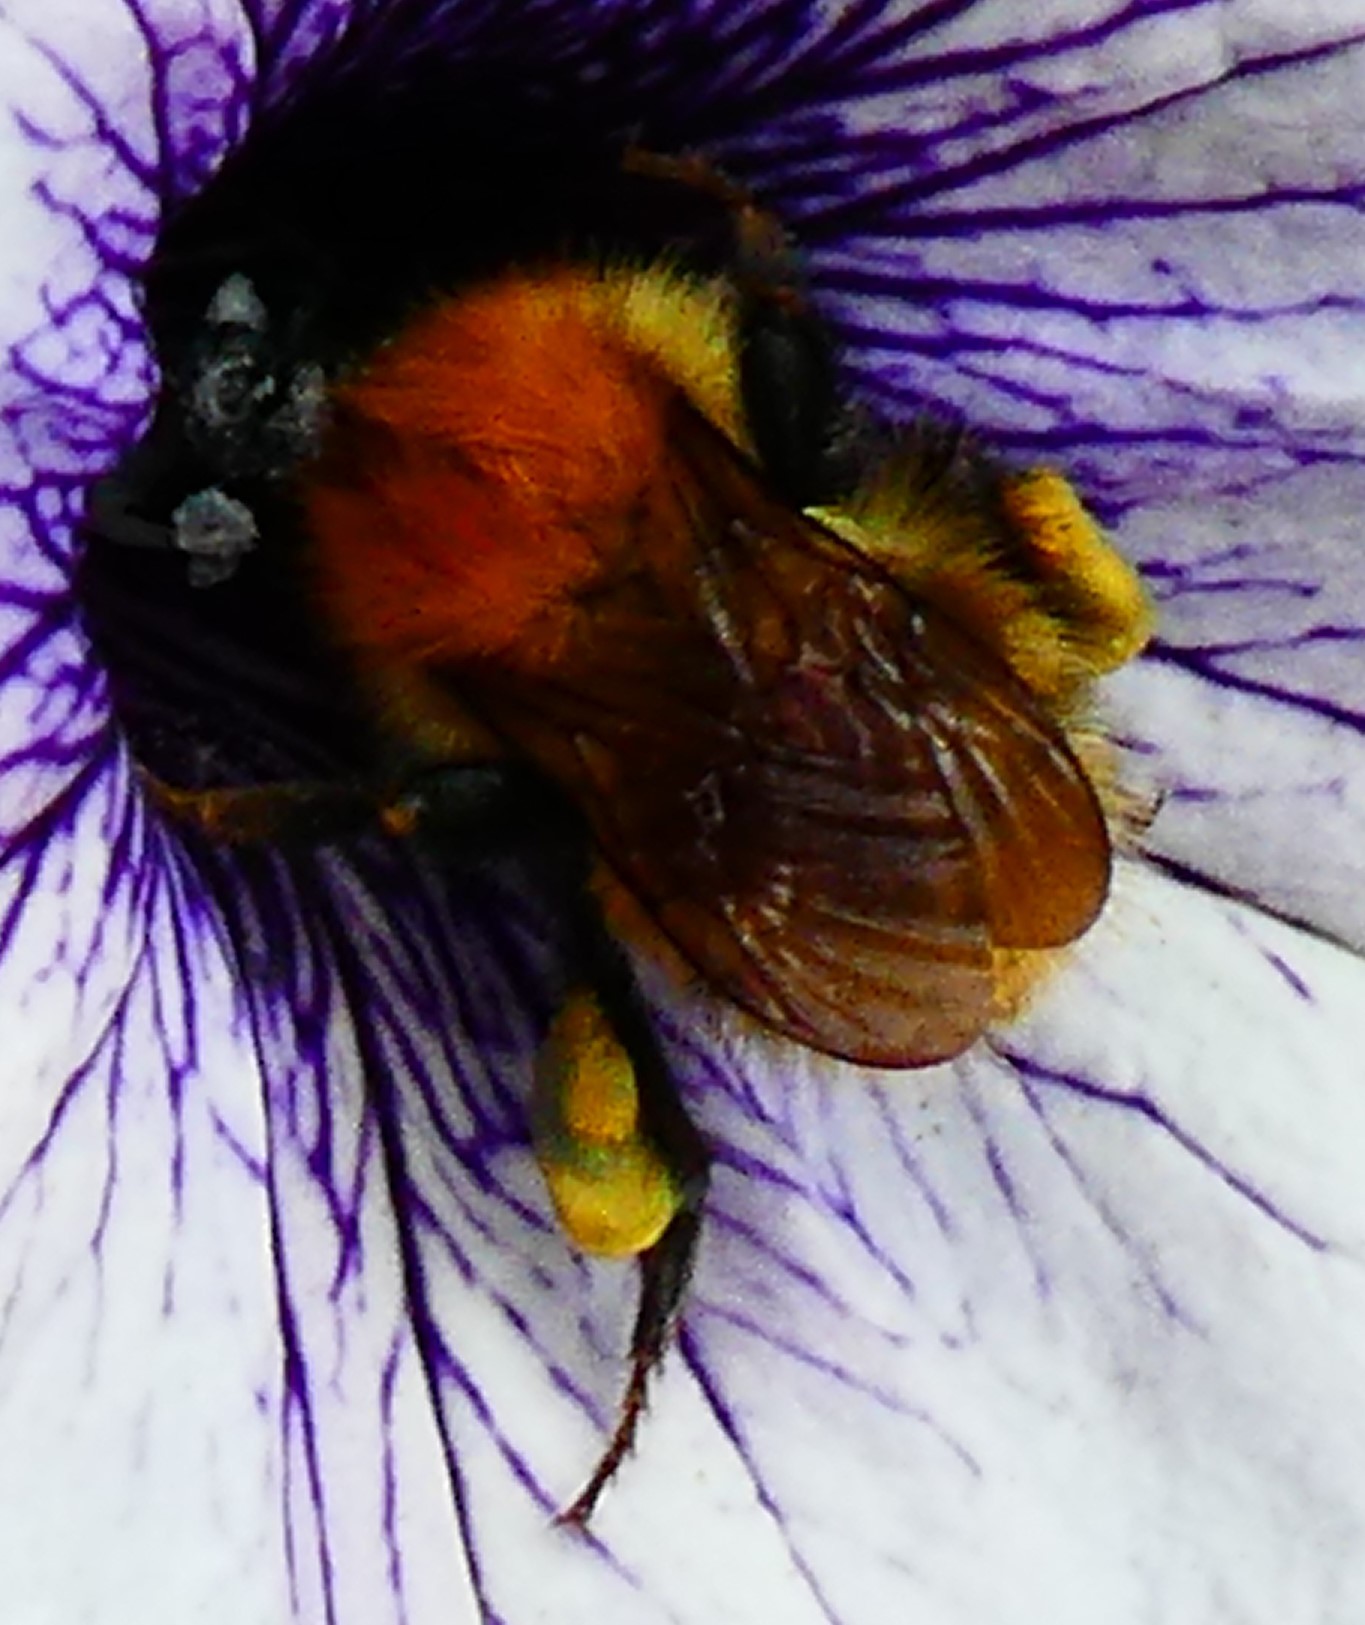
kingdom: Animalia
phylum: Arthropoda
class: Insecta
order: Hymenoptera
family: Apidae
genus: Bombus
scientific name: Bombus muscorum
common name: Moss carder-bee
